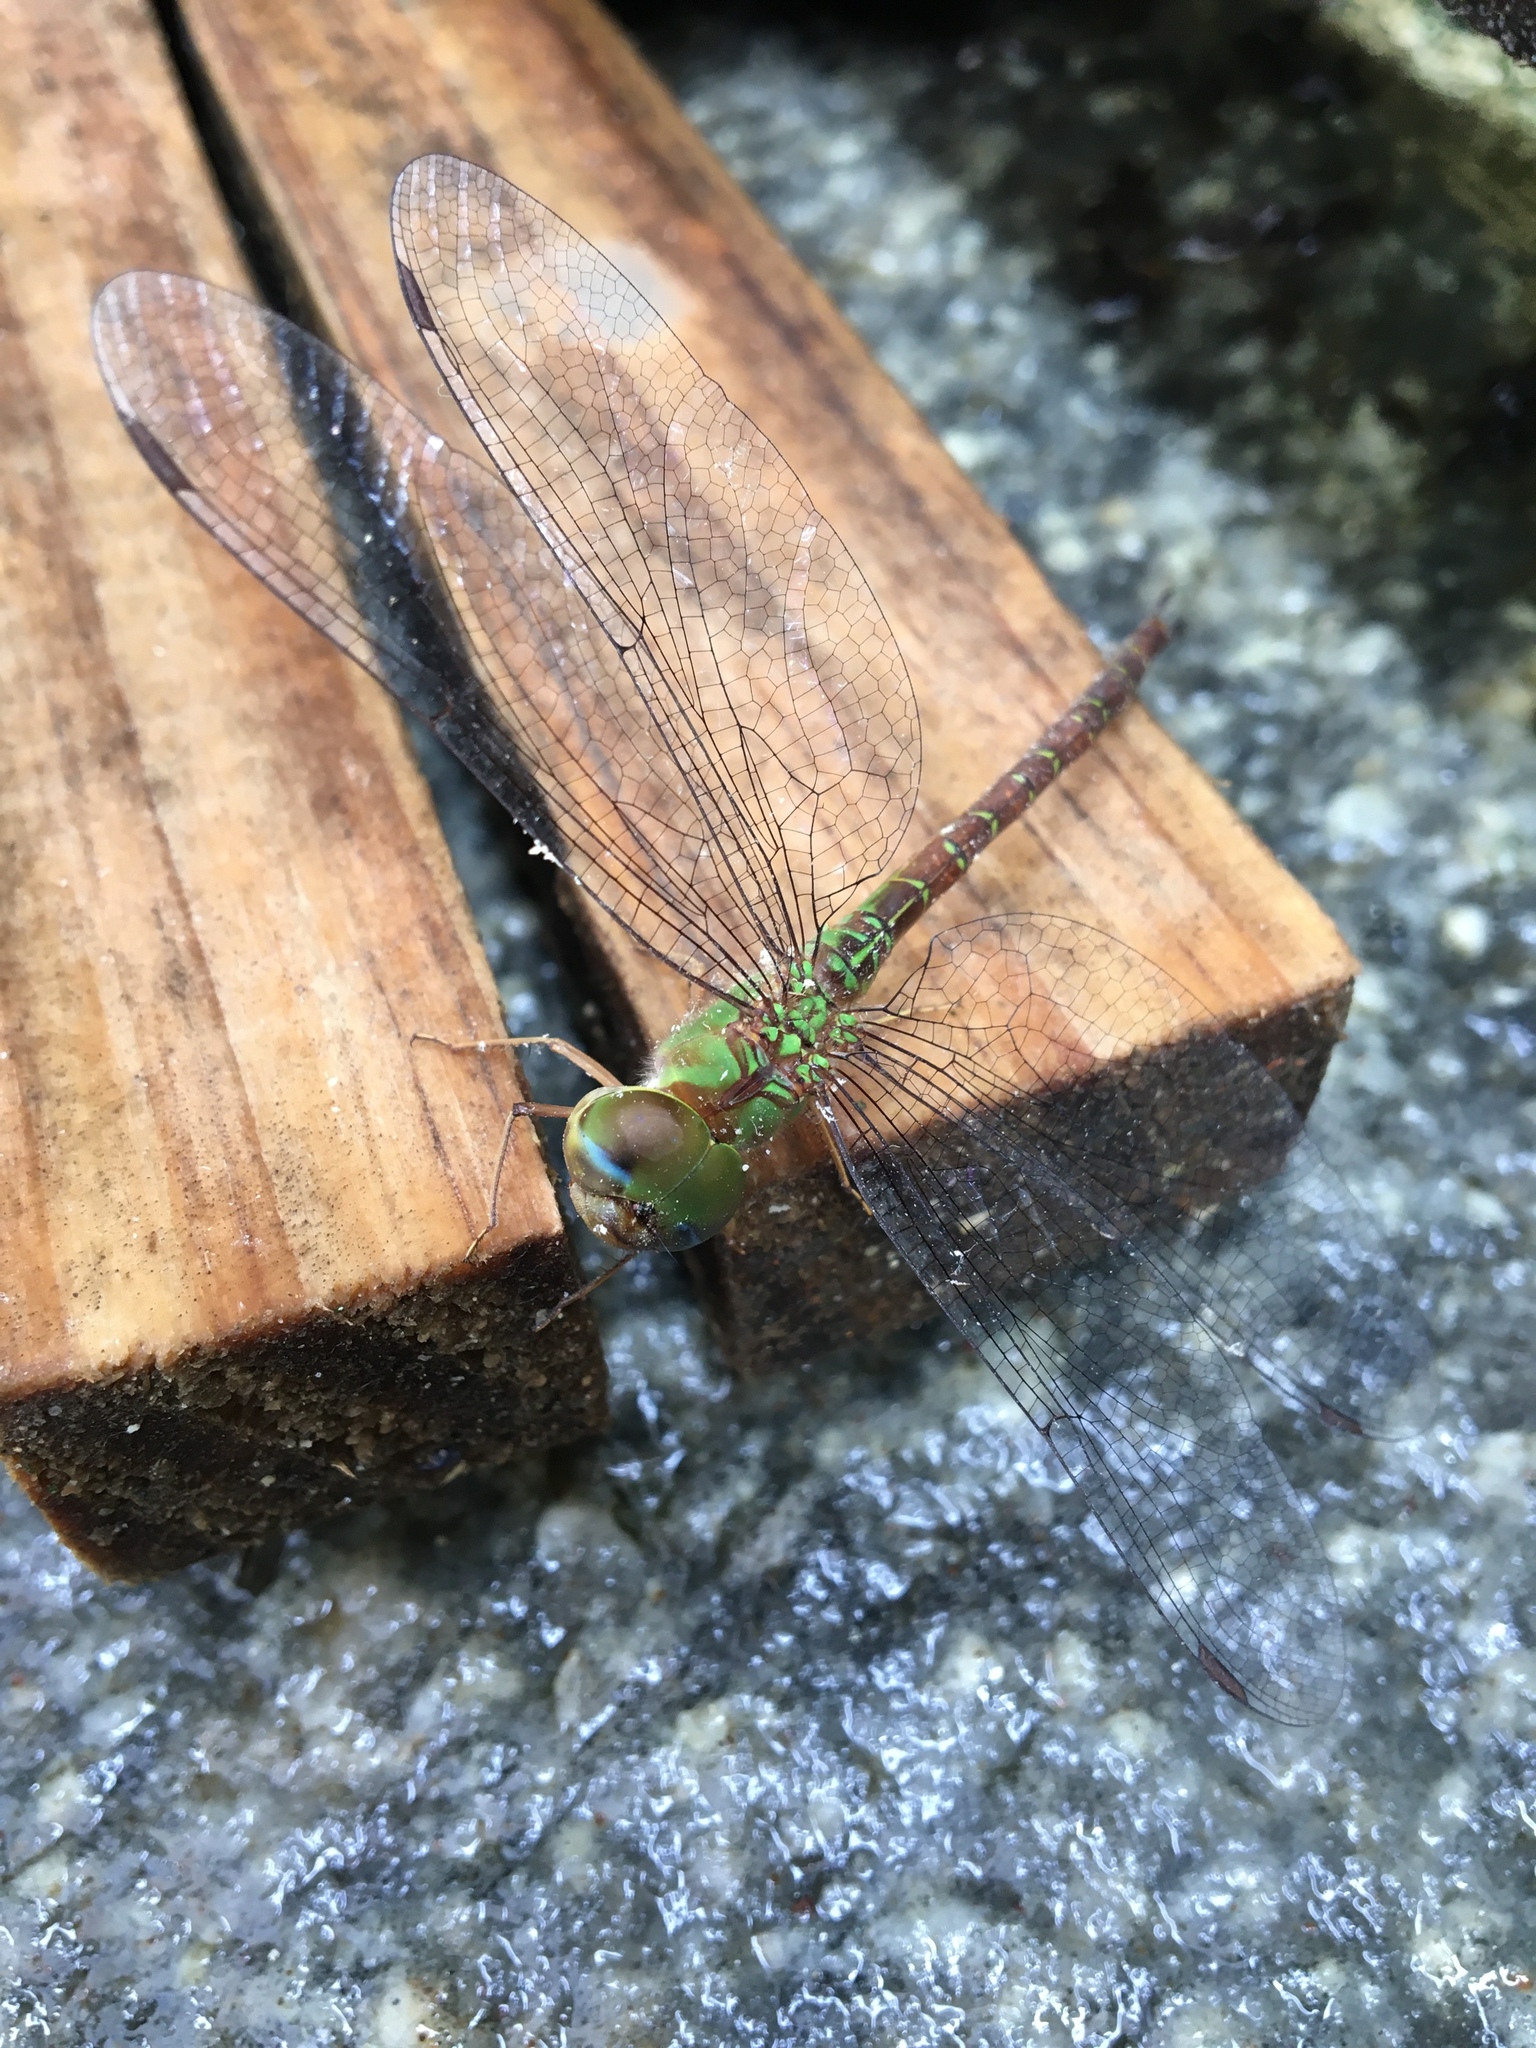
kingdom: Animalia
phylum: Arthropoda
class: Insecta
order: Odonata
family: Aeshnidae
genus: Coryphaeschna
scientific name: Coryphaeschna adnexa
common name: Blue-faced darner
